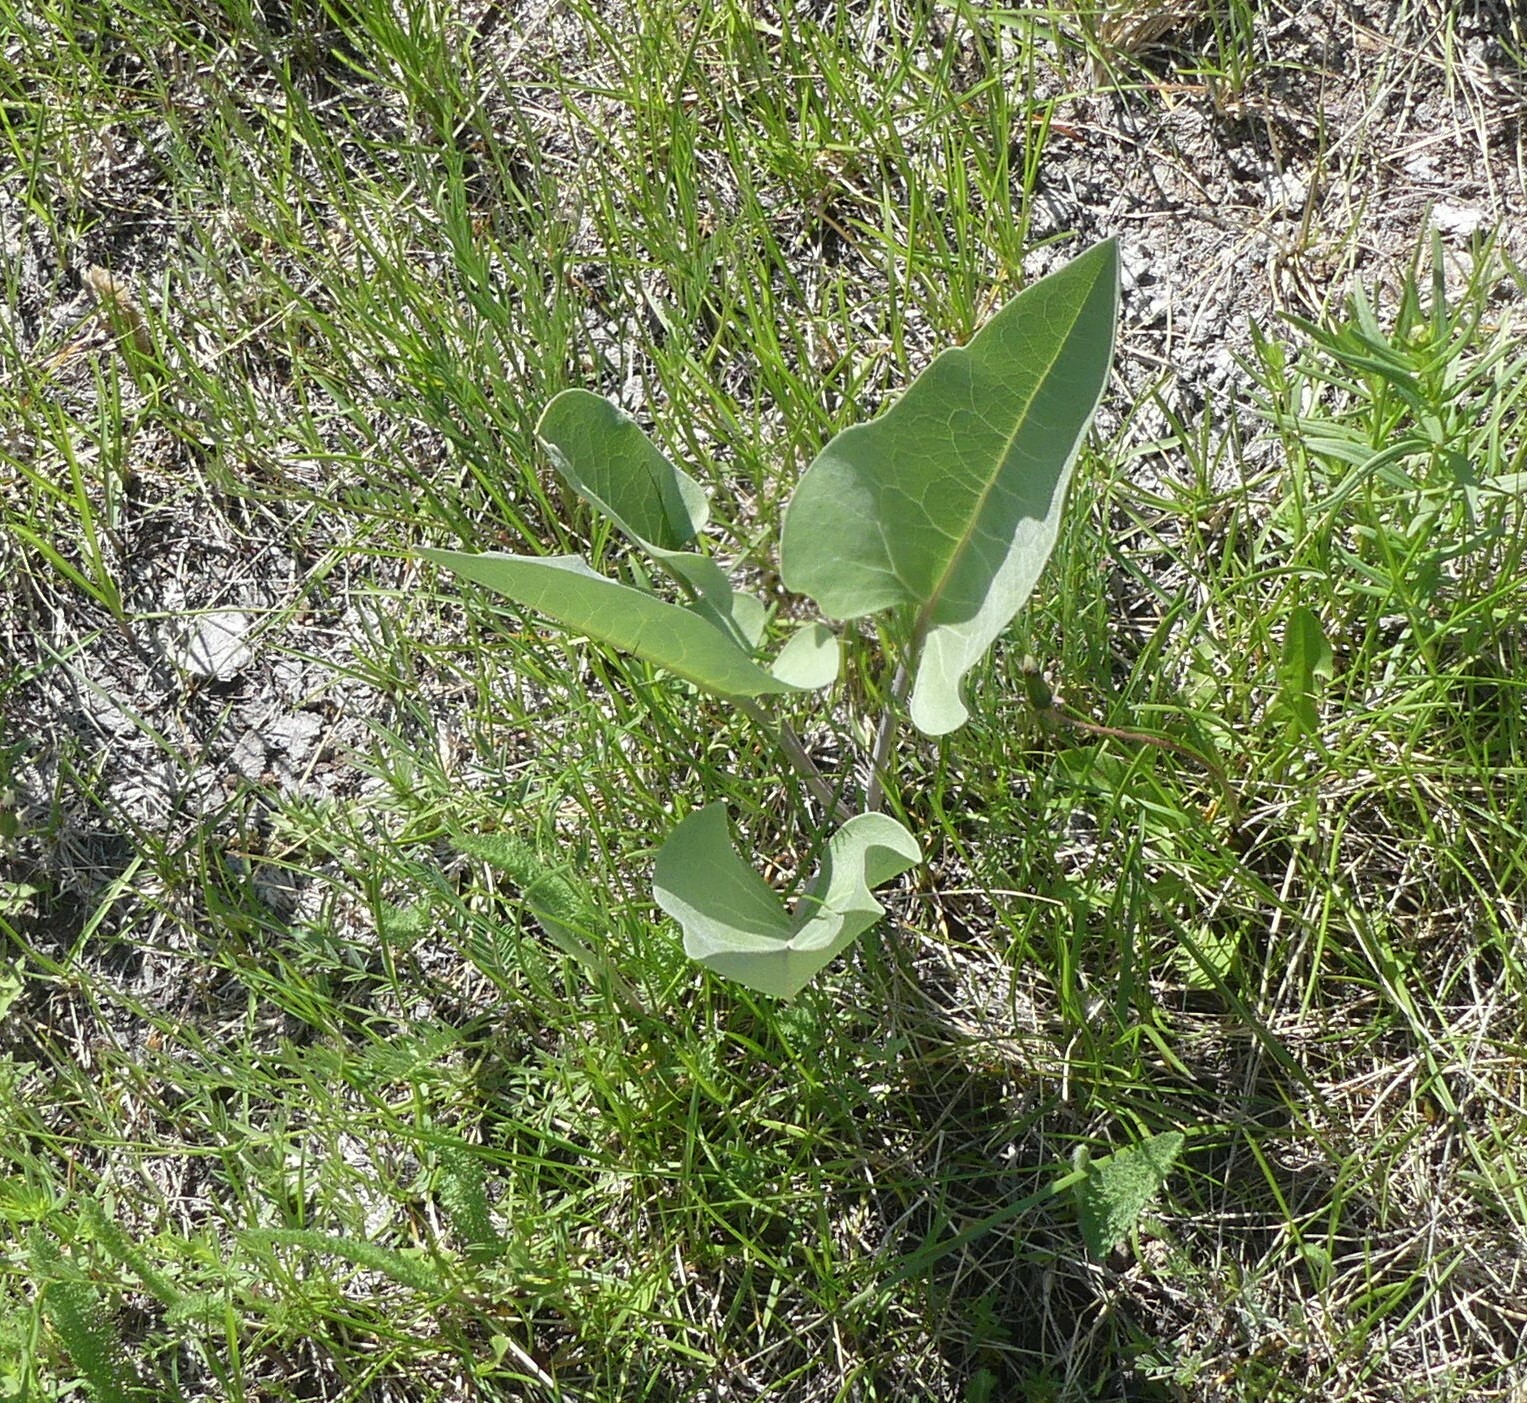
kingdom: Plantae
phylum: Tracheophyta
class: Magnoliopsida
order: Asterales
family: Asteraceae
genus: Wyethia
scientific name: Wyethia sagittata
